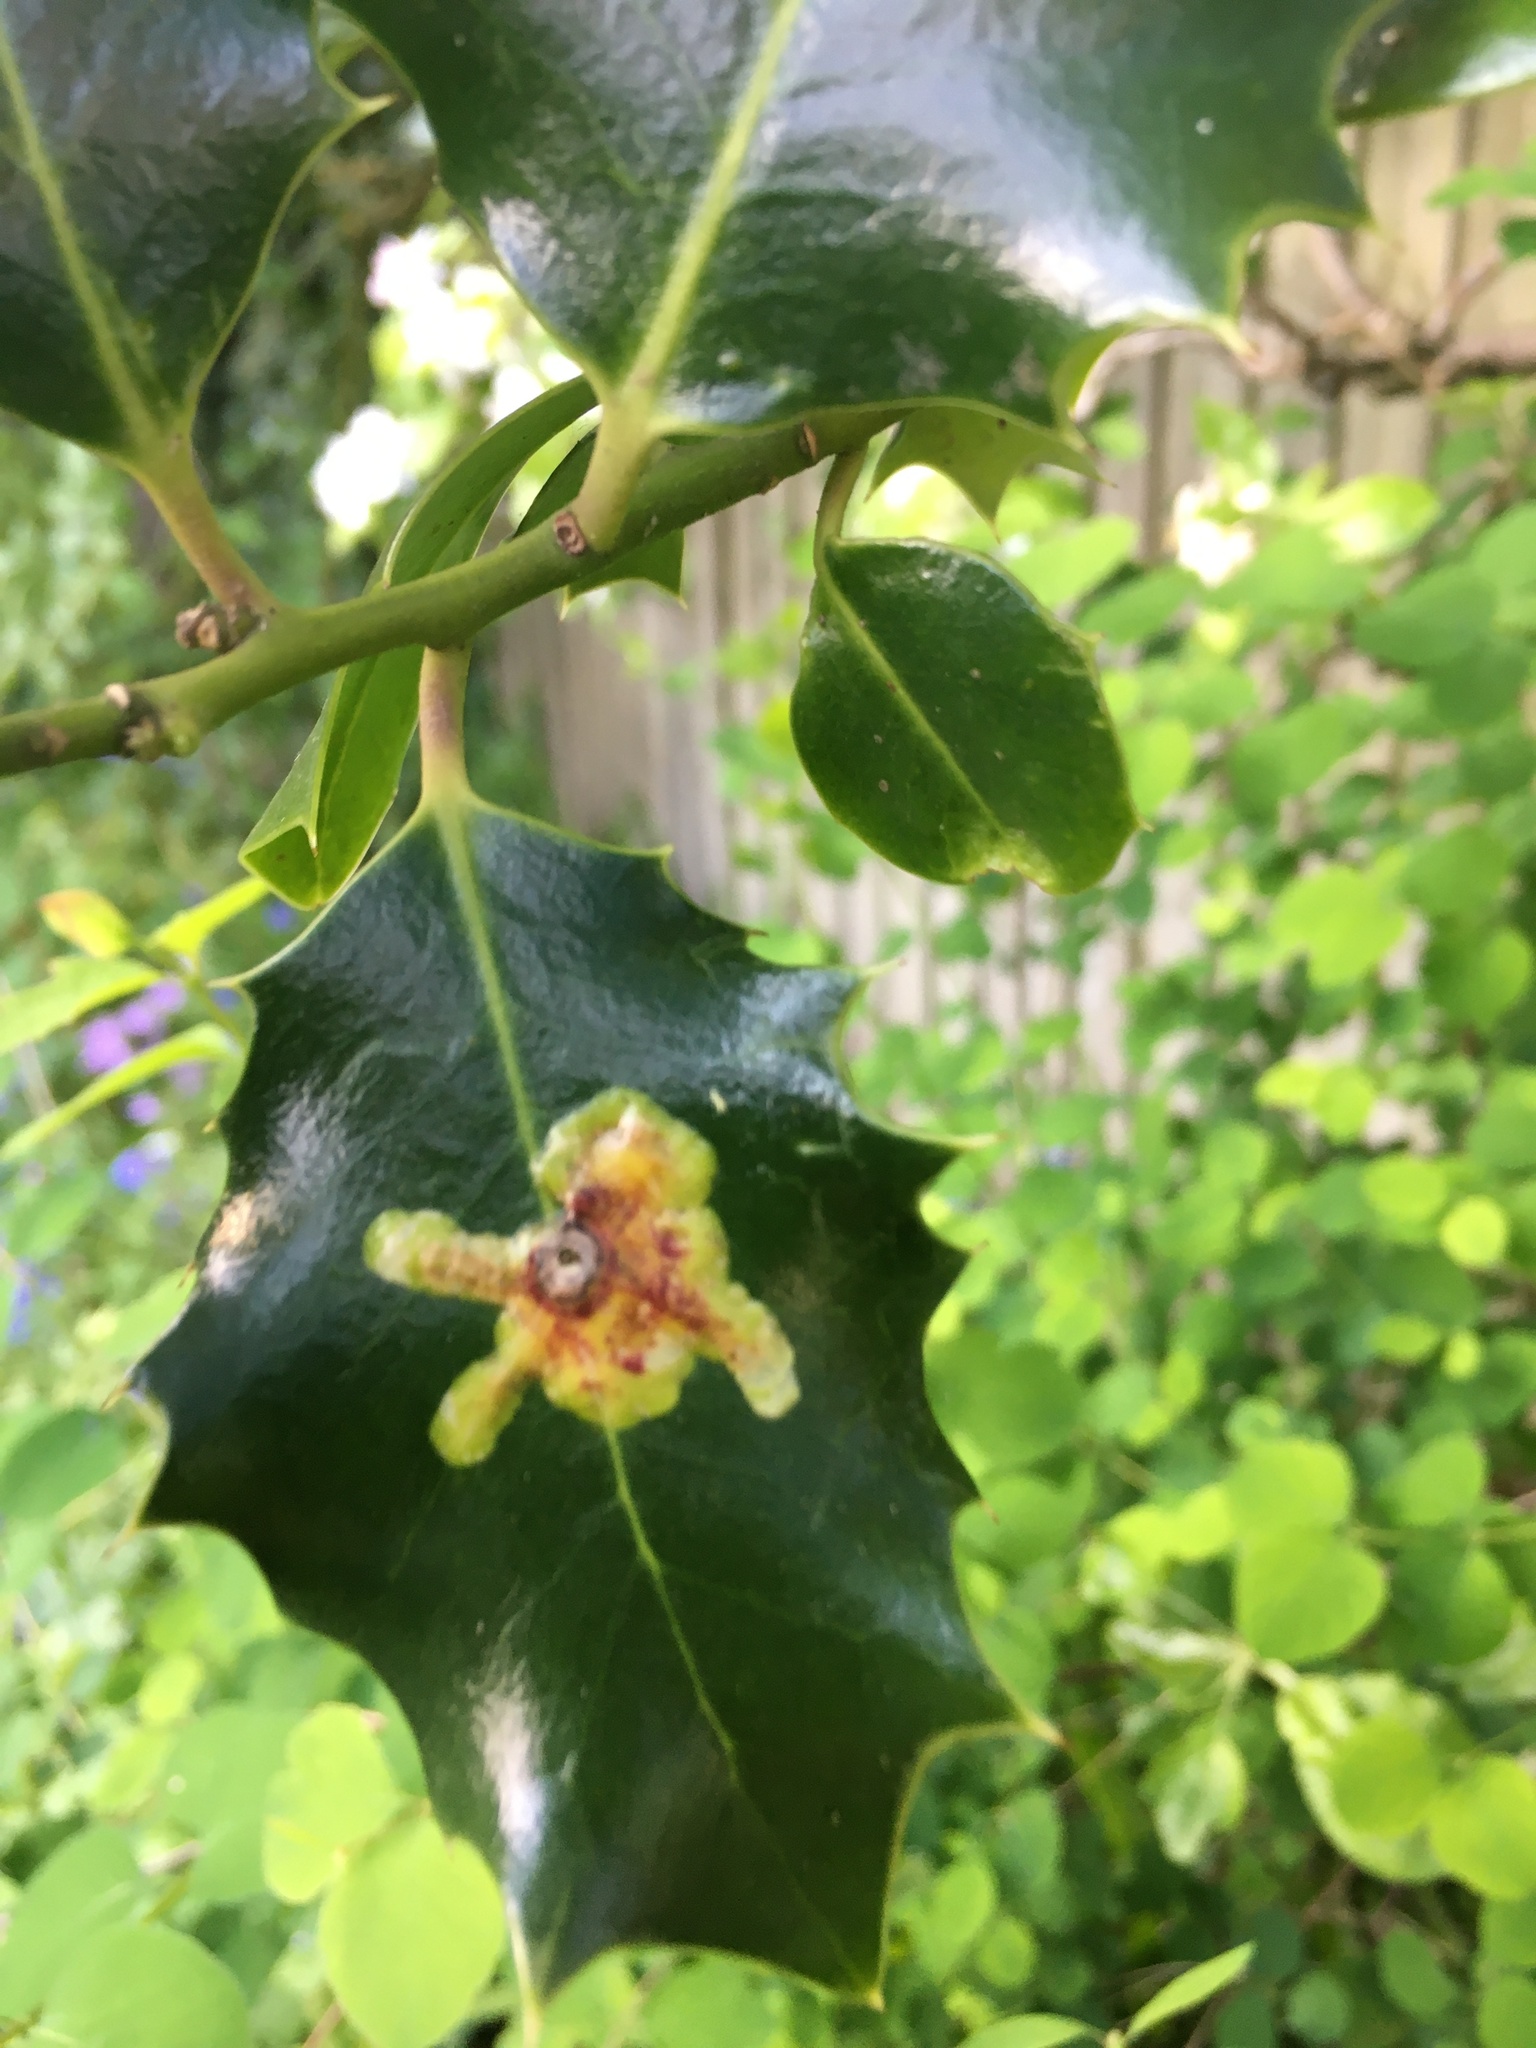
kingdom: Animalia
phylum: Arthropoda
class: Insecta
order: Diptera
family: Agromyzidae
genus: Phytomyza
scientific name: Phytomyza ilicis
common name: Holly leafminer
